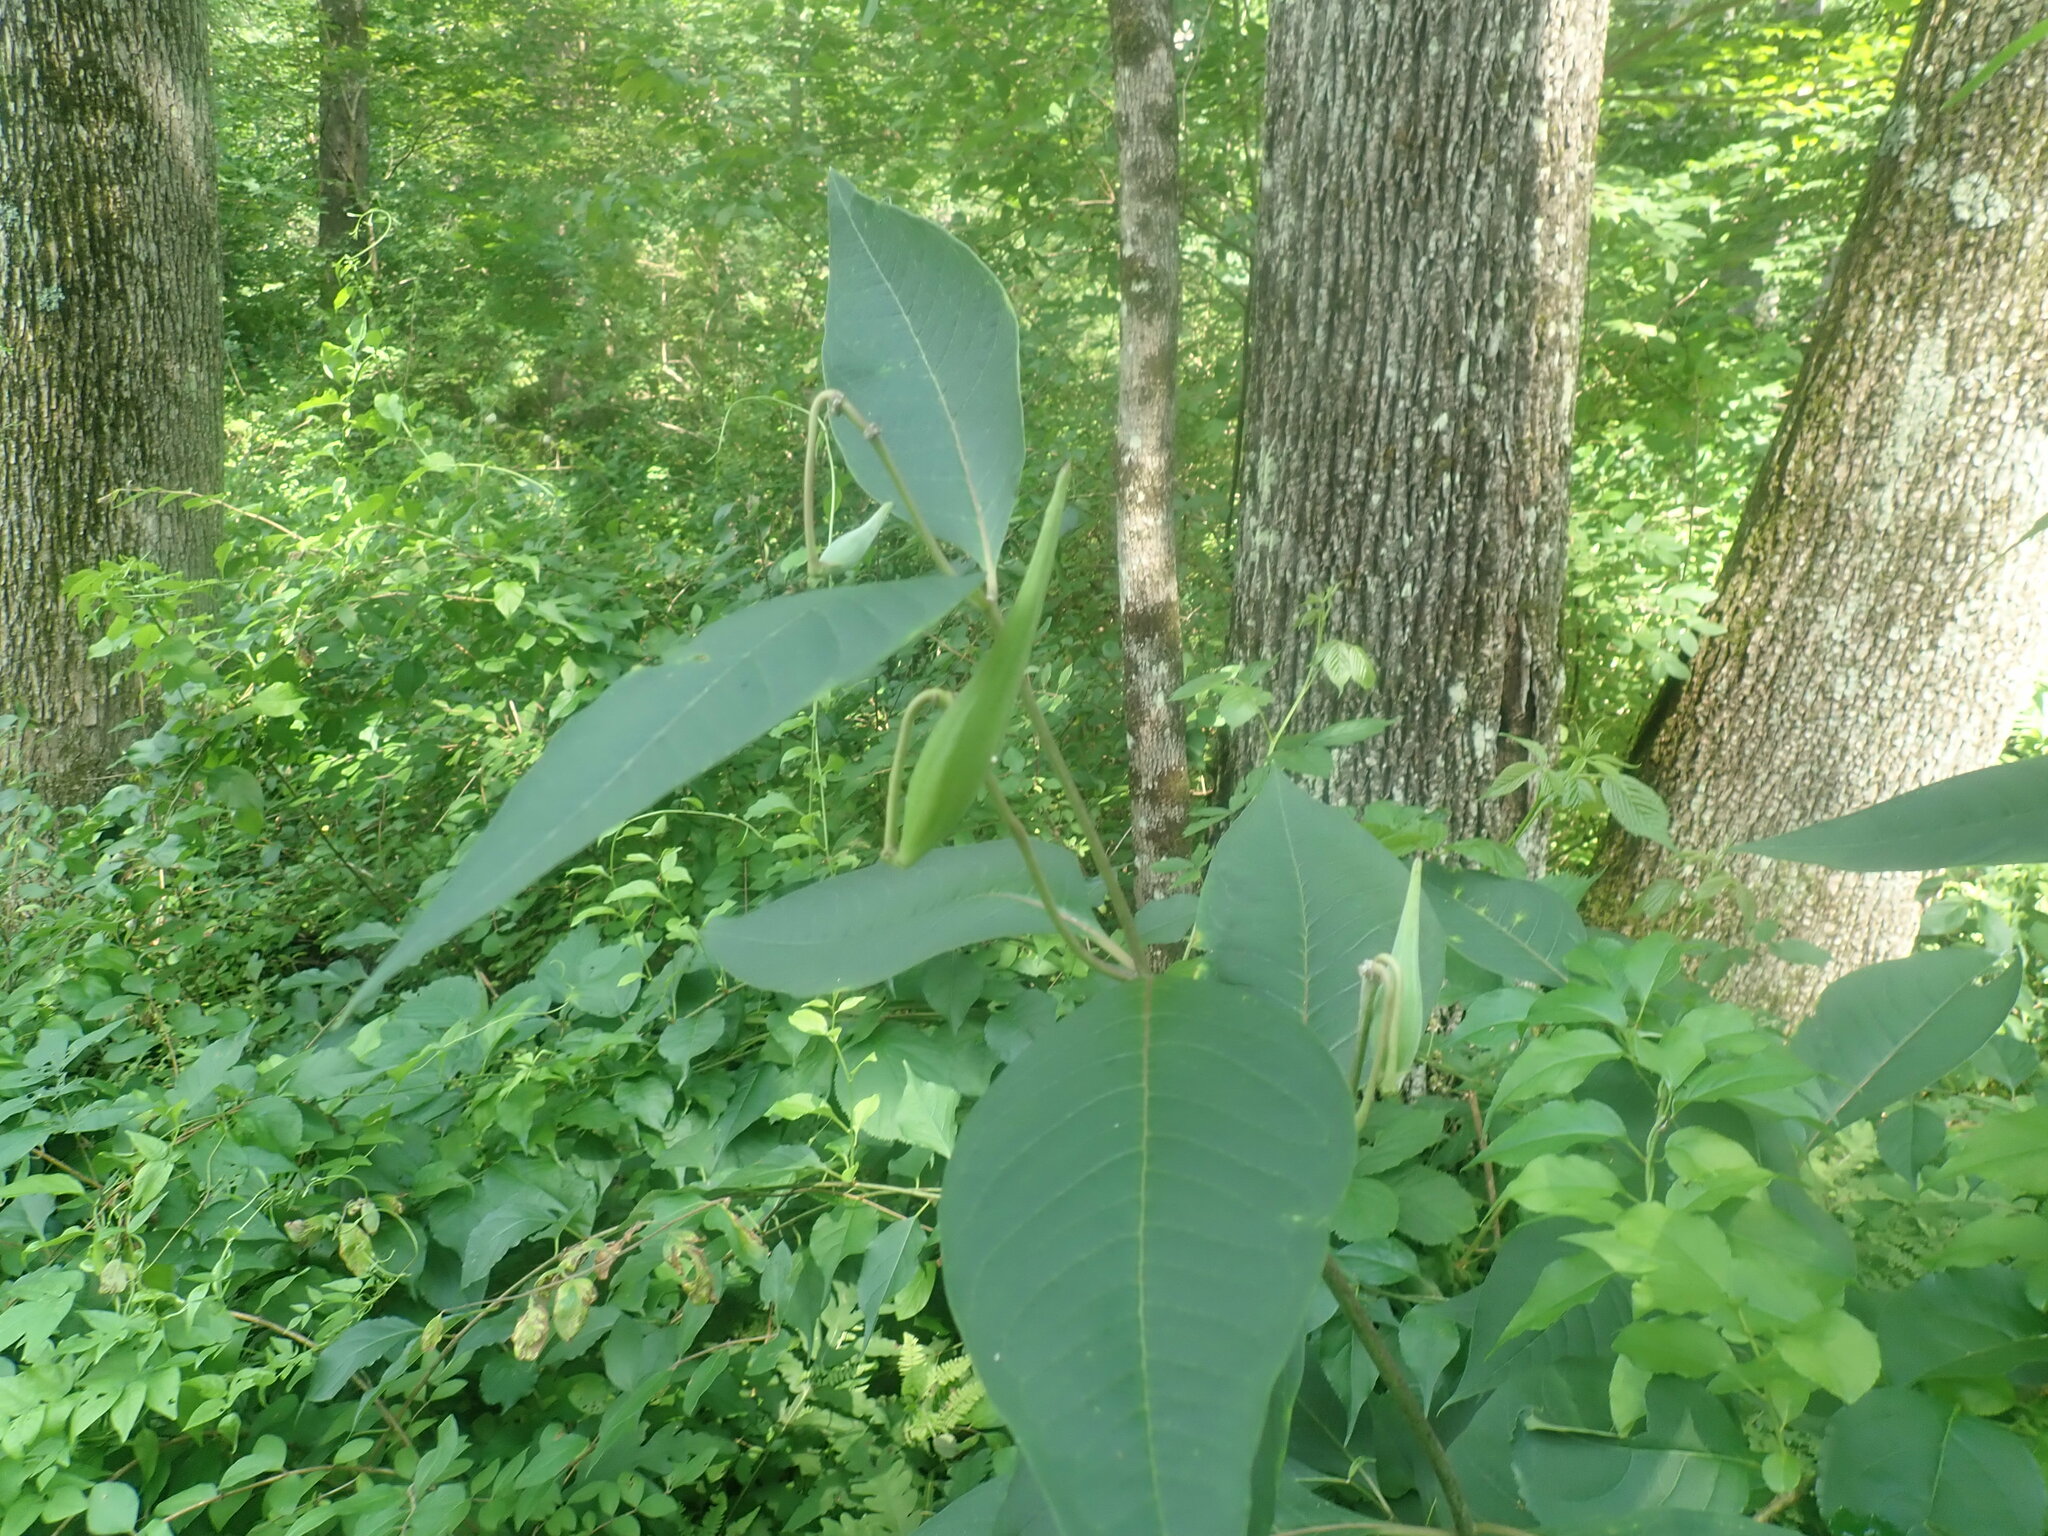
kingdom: Plantae
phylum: Tracheophyta
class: Magnoliopsida
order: Gentianales
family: Apocynaceae
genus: Asclepias
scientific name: Asclepias exaltata
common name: Poke milkweed
